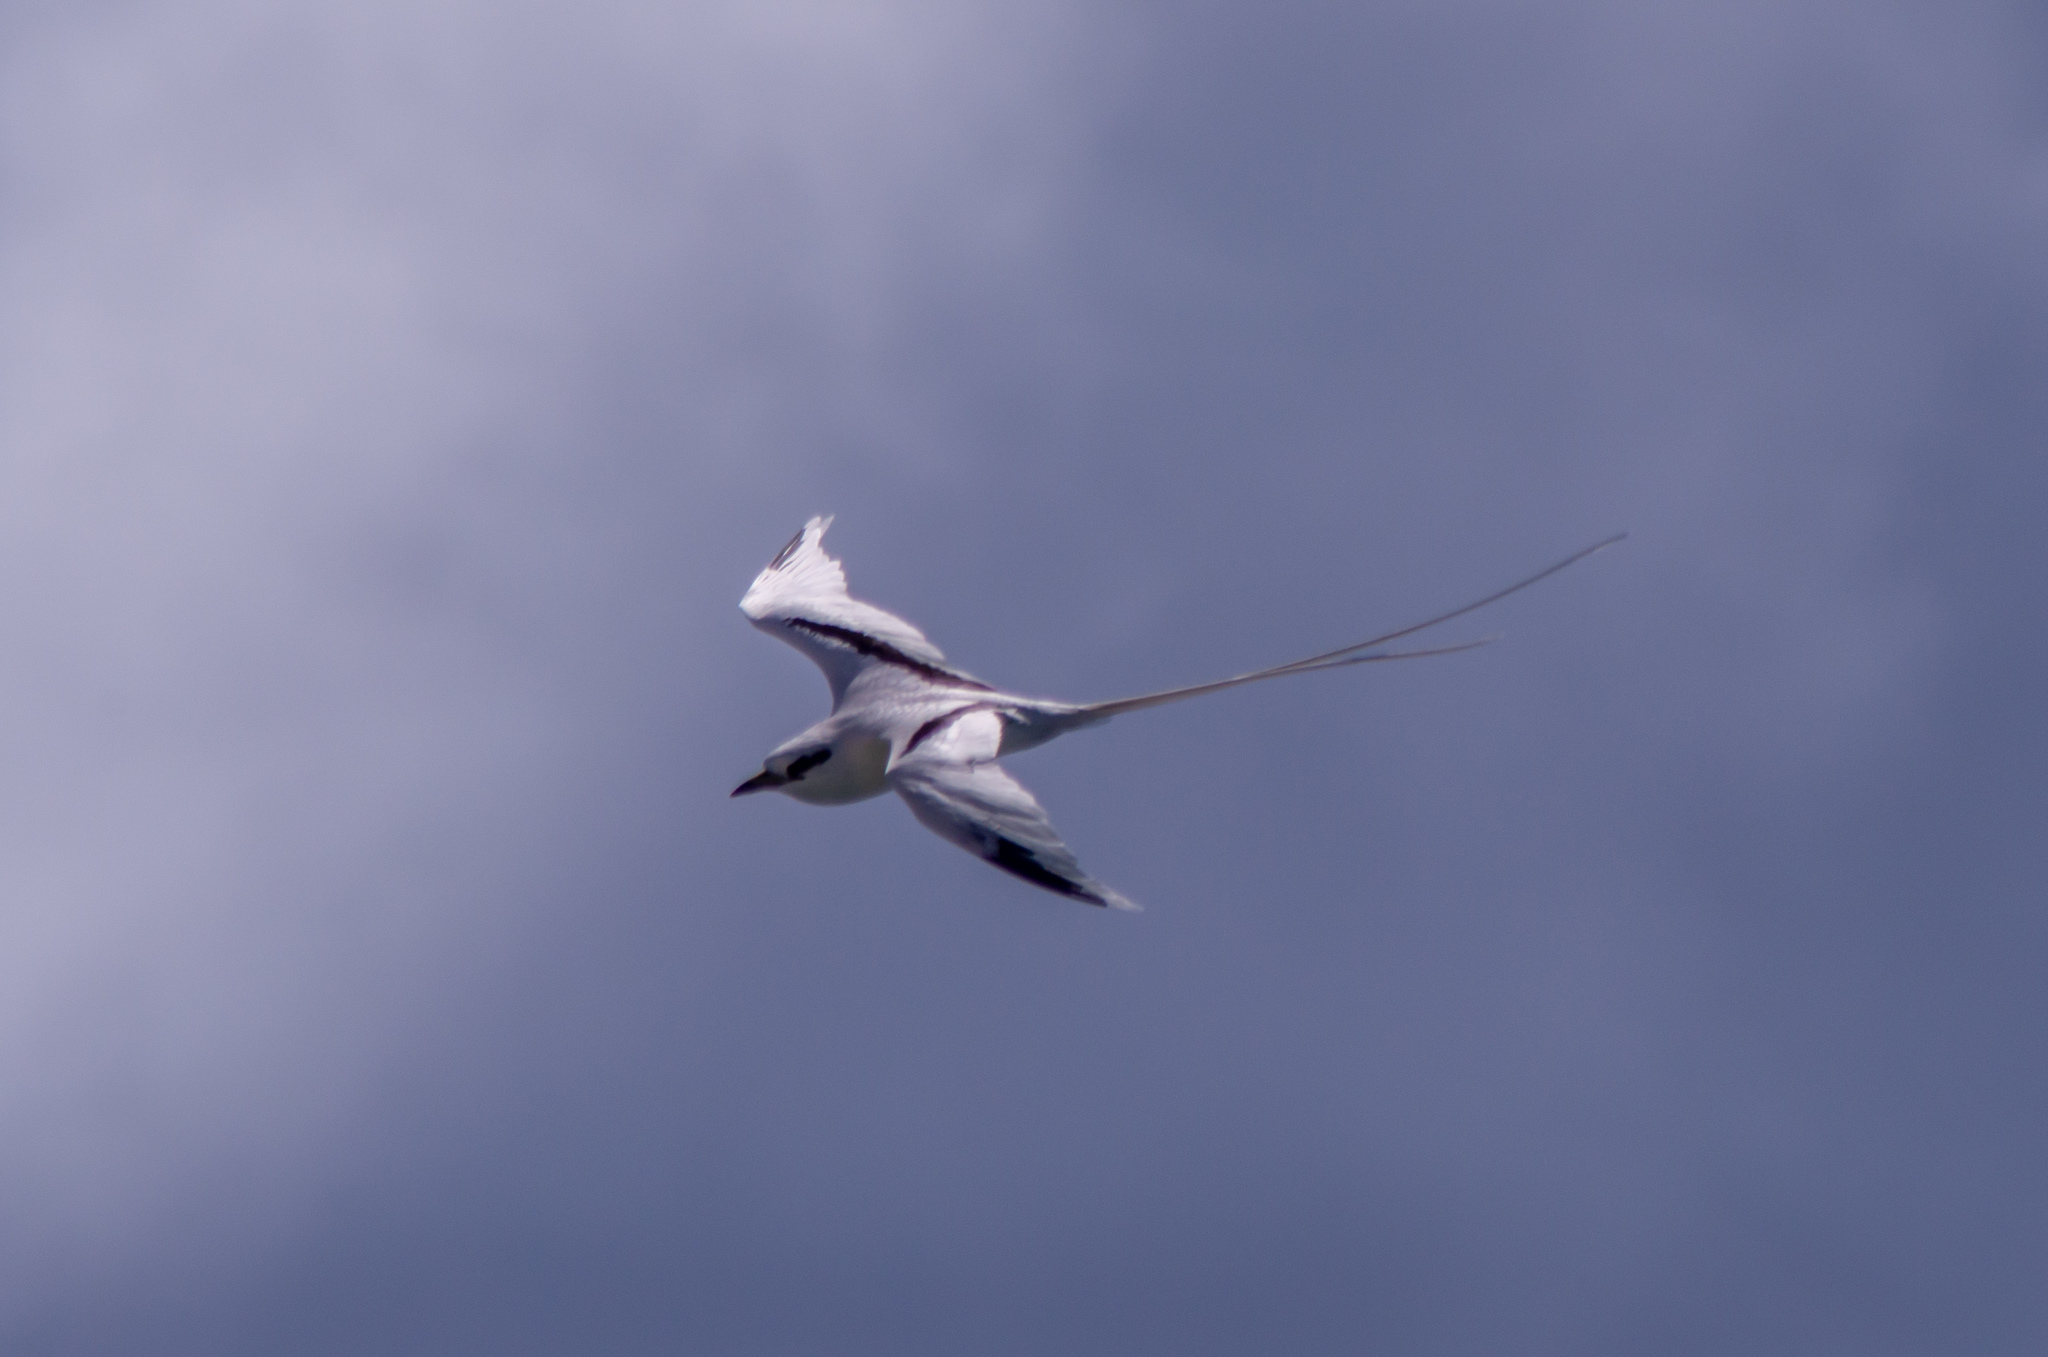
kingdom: Animalia
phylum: Chordata
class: Aves
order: Phaethontiformes
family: Phaethontidae
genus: Phaethon
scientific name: Phaethon lepturus
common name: White-tailed tropicbird
